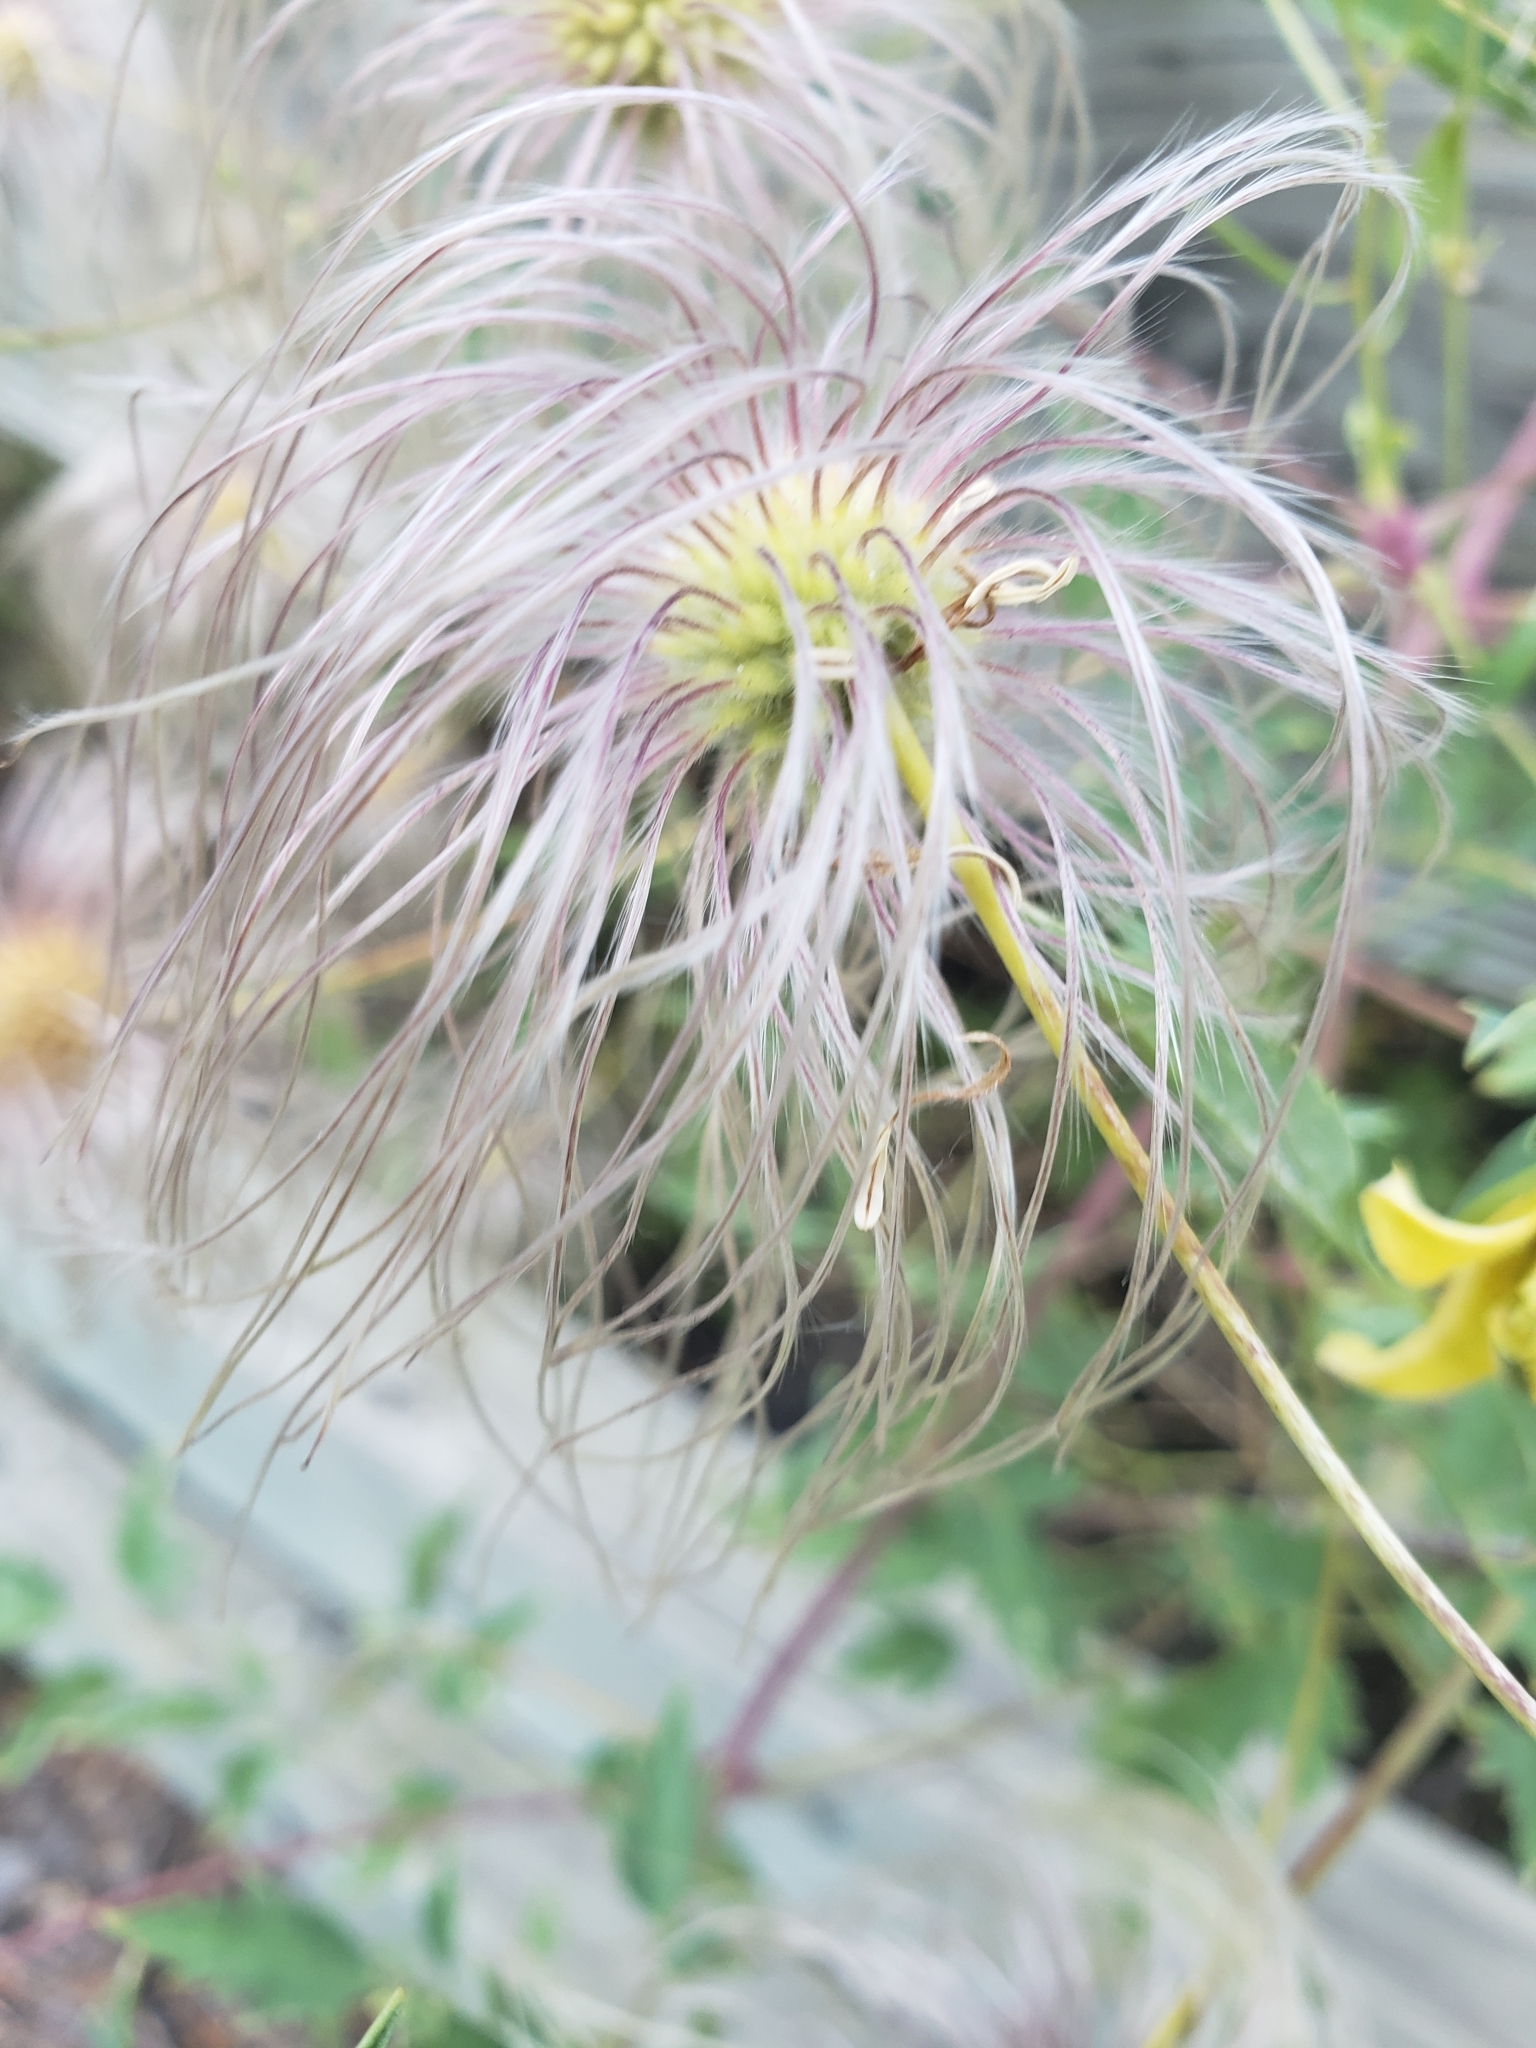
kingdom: Plantae
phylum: Tracheophyta
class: Magnoliopsida
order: Ranunculales
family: Ranunculaceae
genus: Clematis
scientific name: Clematis orientalis
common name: Oriental virgin's-bower
